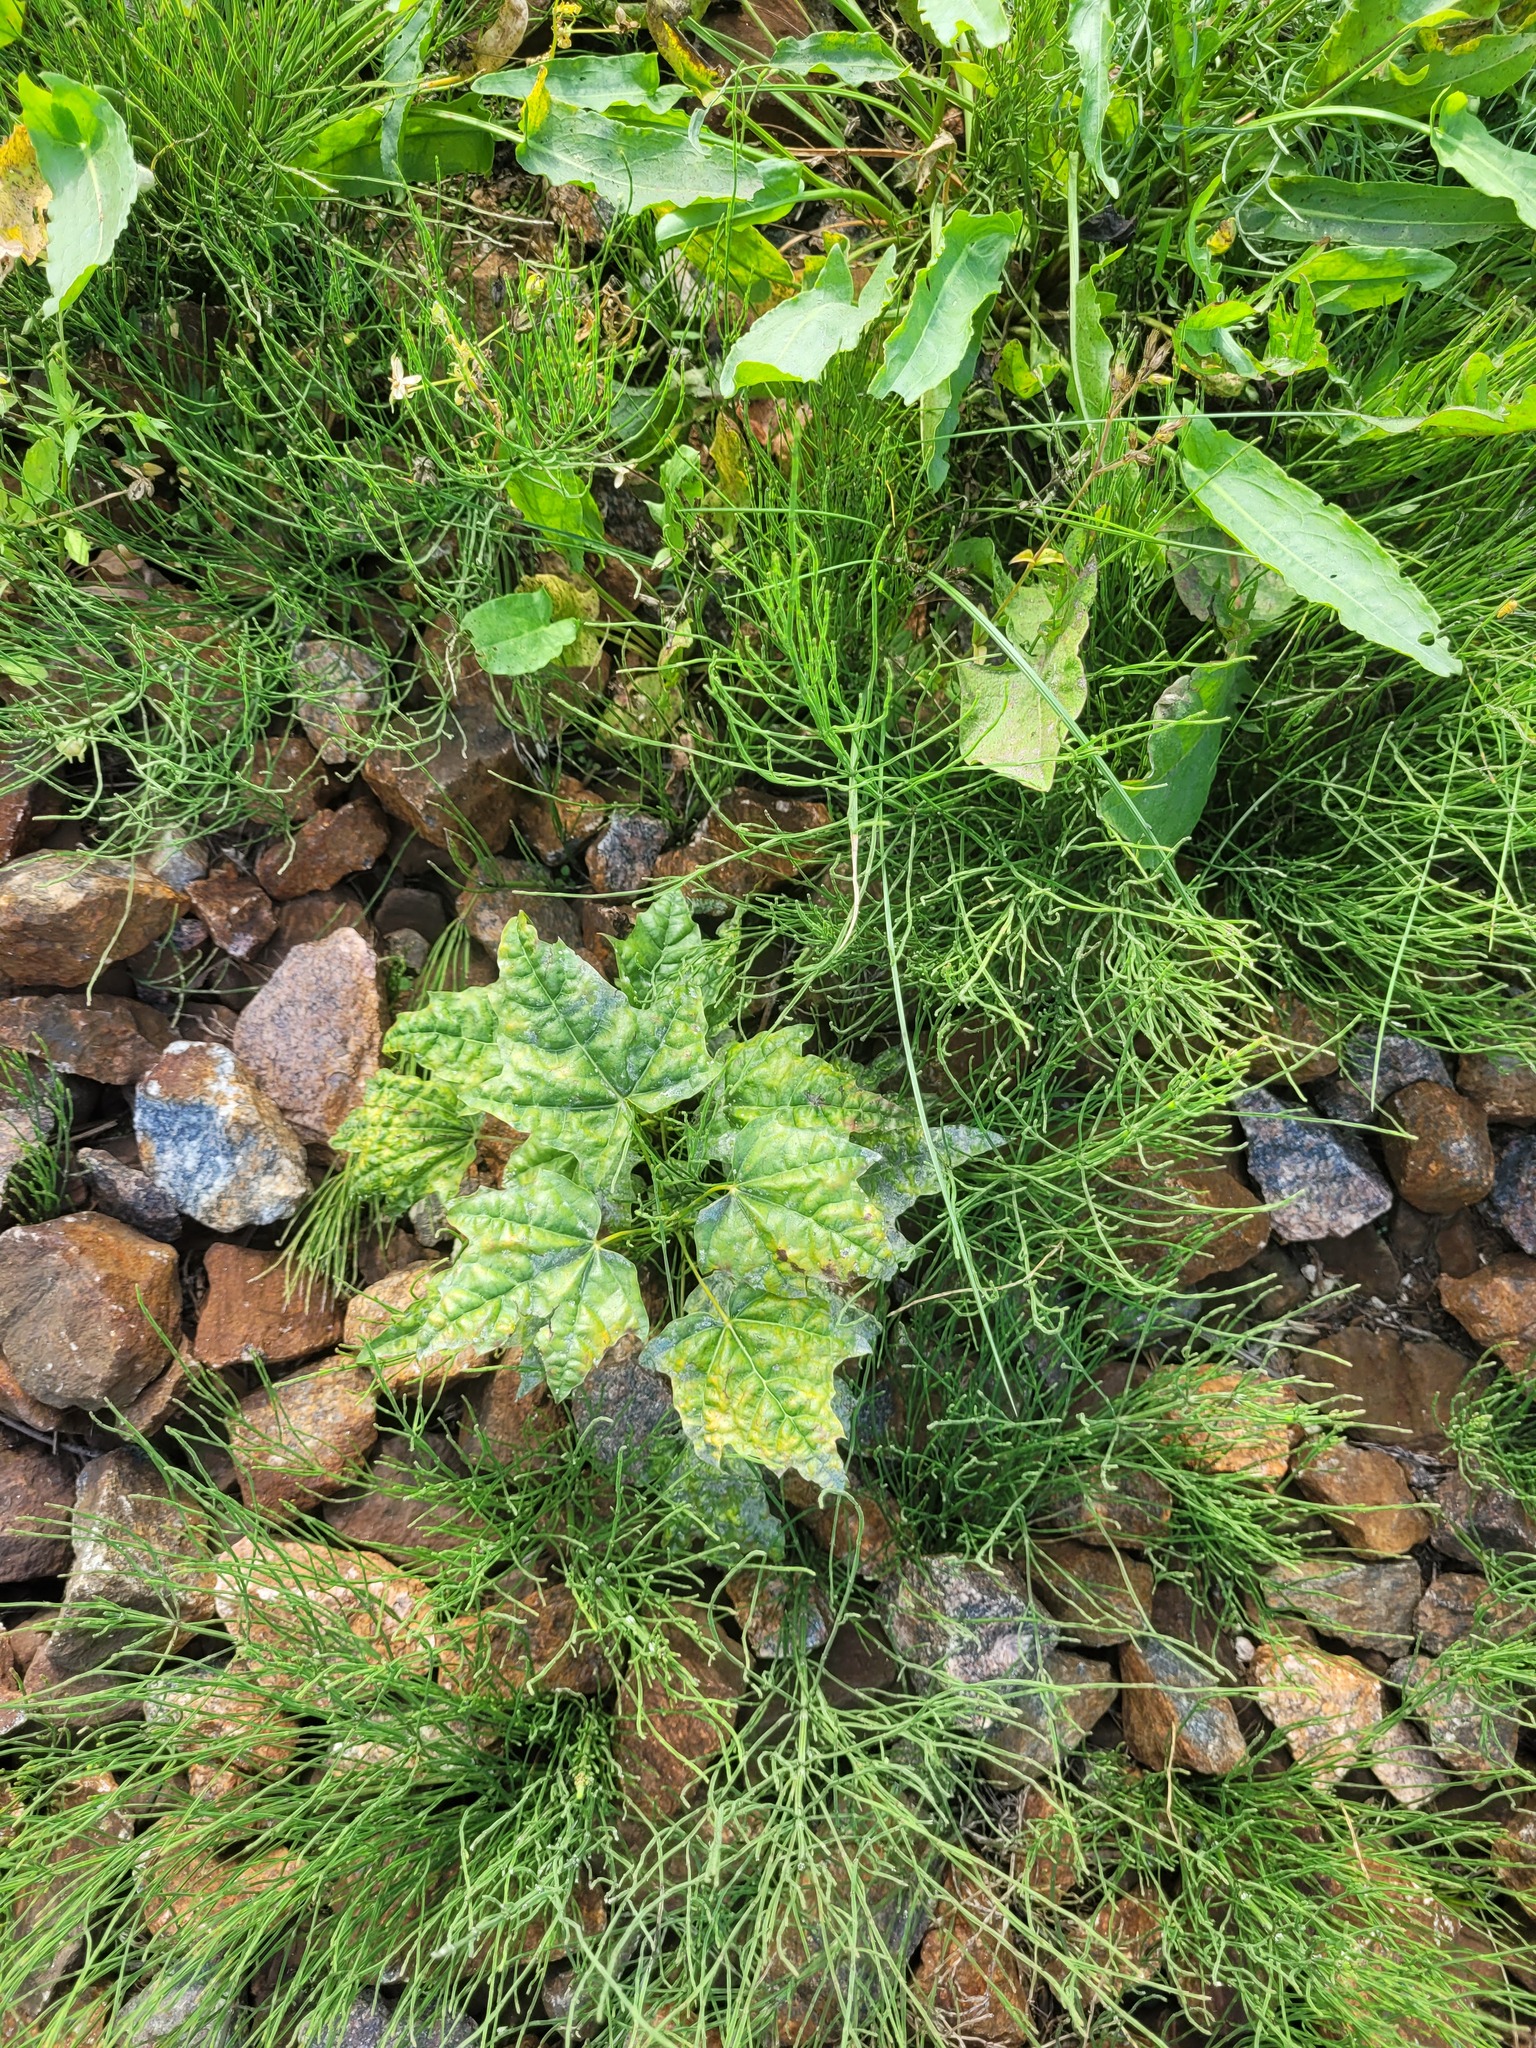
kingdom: Plantae
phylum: Tracheophyta
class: Magnoliopsida
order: Sapindales
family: Sapindaceae
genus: Acer
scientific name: Acer platanoides
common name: Norway maple
